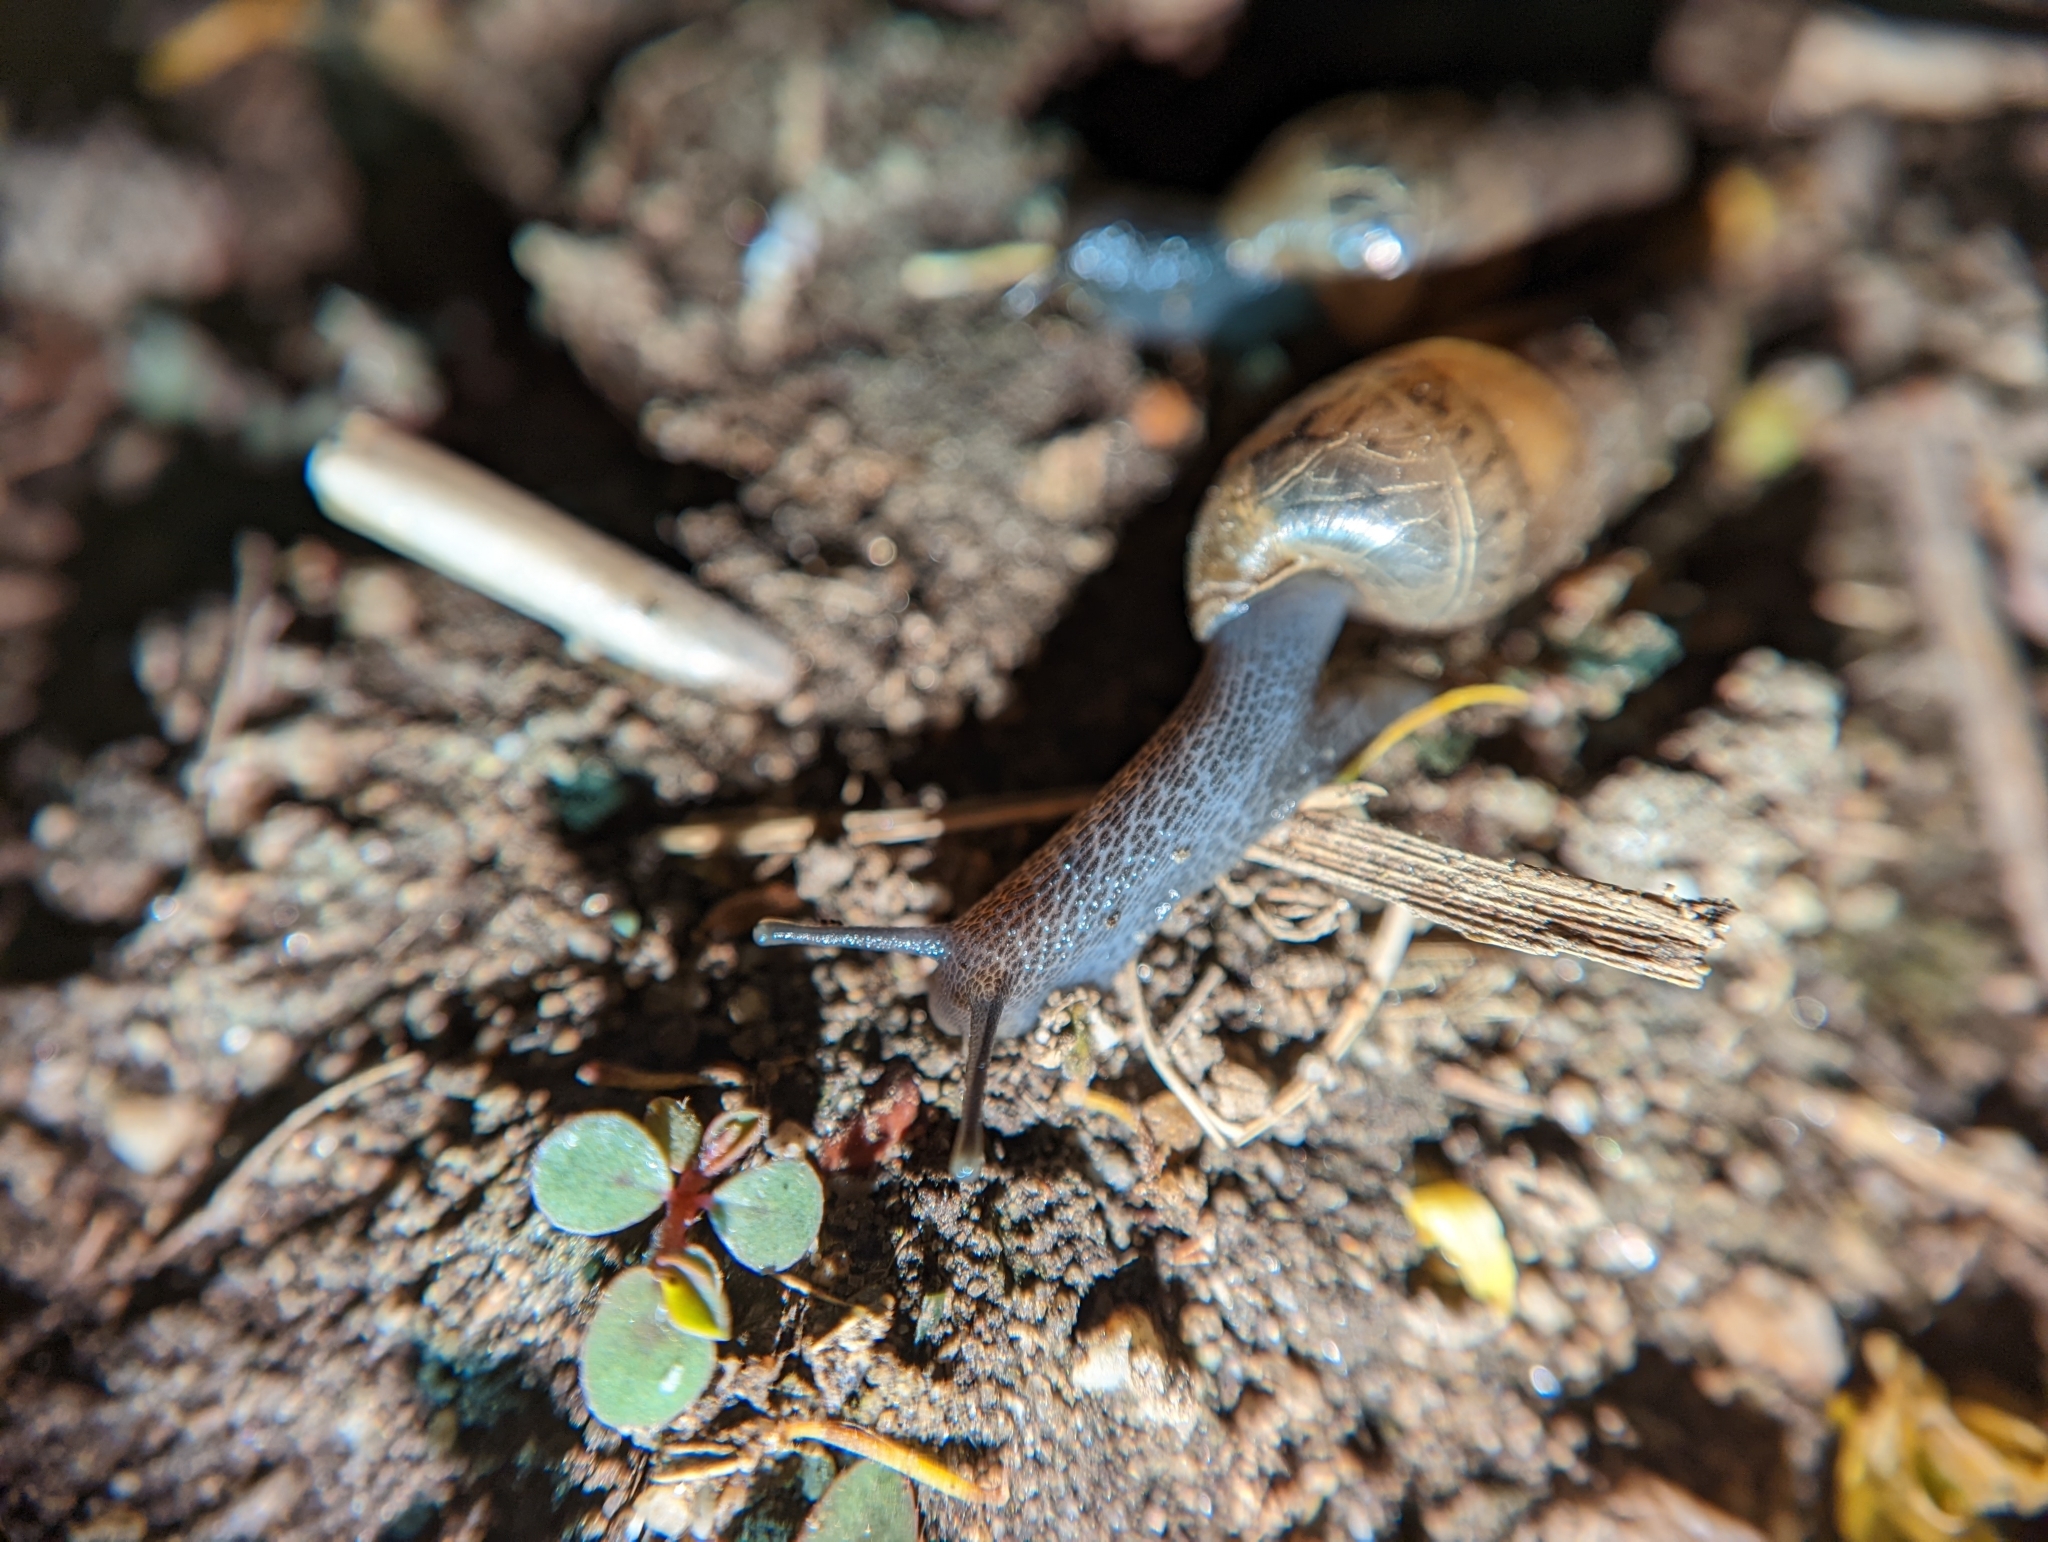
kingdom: Animalia
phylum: Mollusca
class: Gastropoda
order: Stylommatophora
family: Achatinidae
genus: Rumina
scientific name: Rumina decollata
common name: Decollate snail
